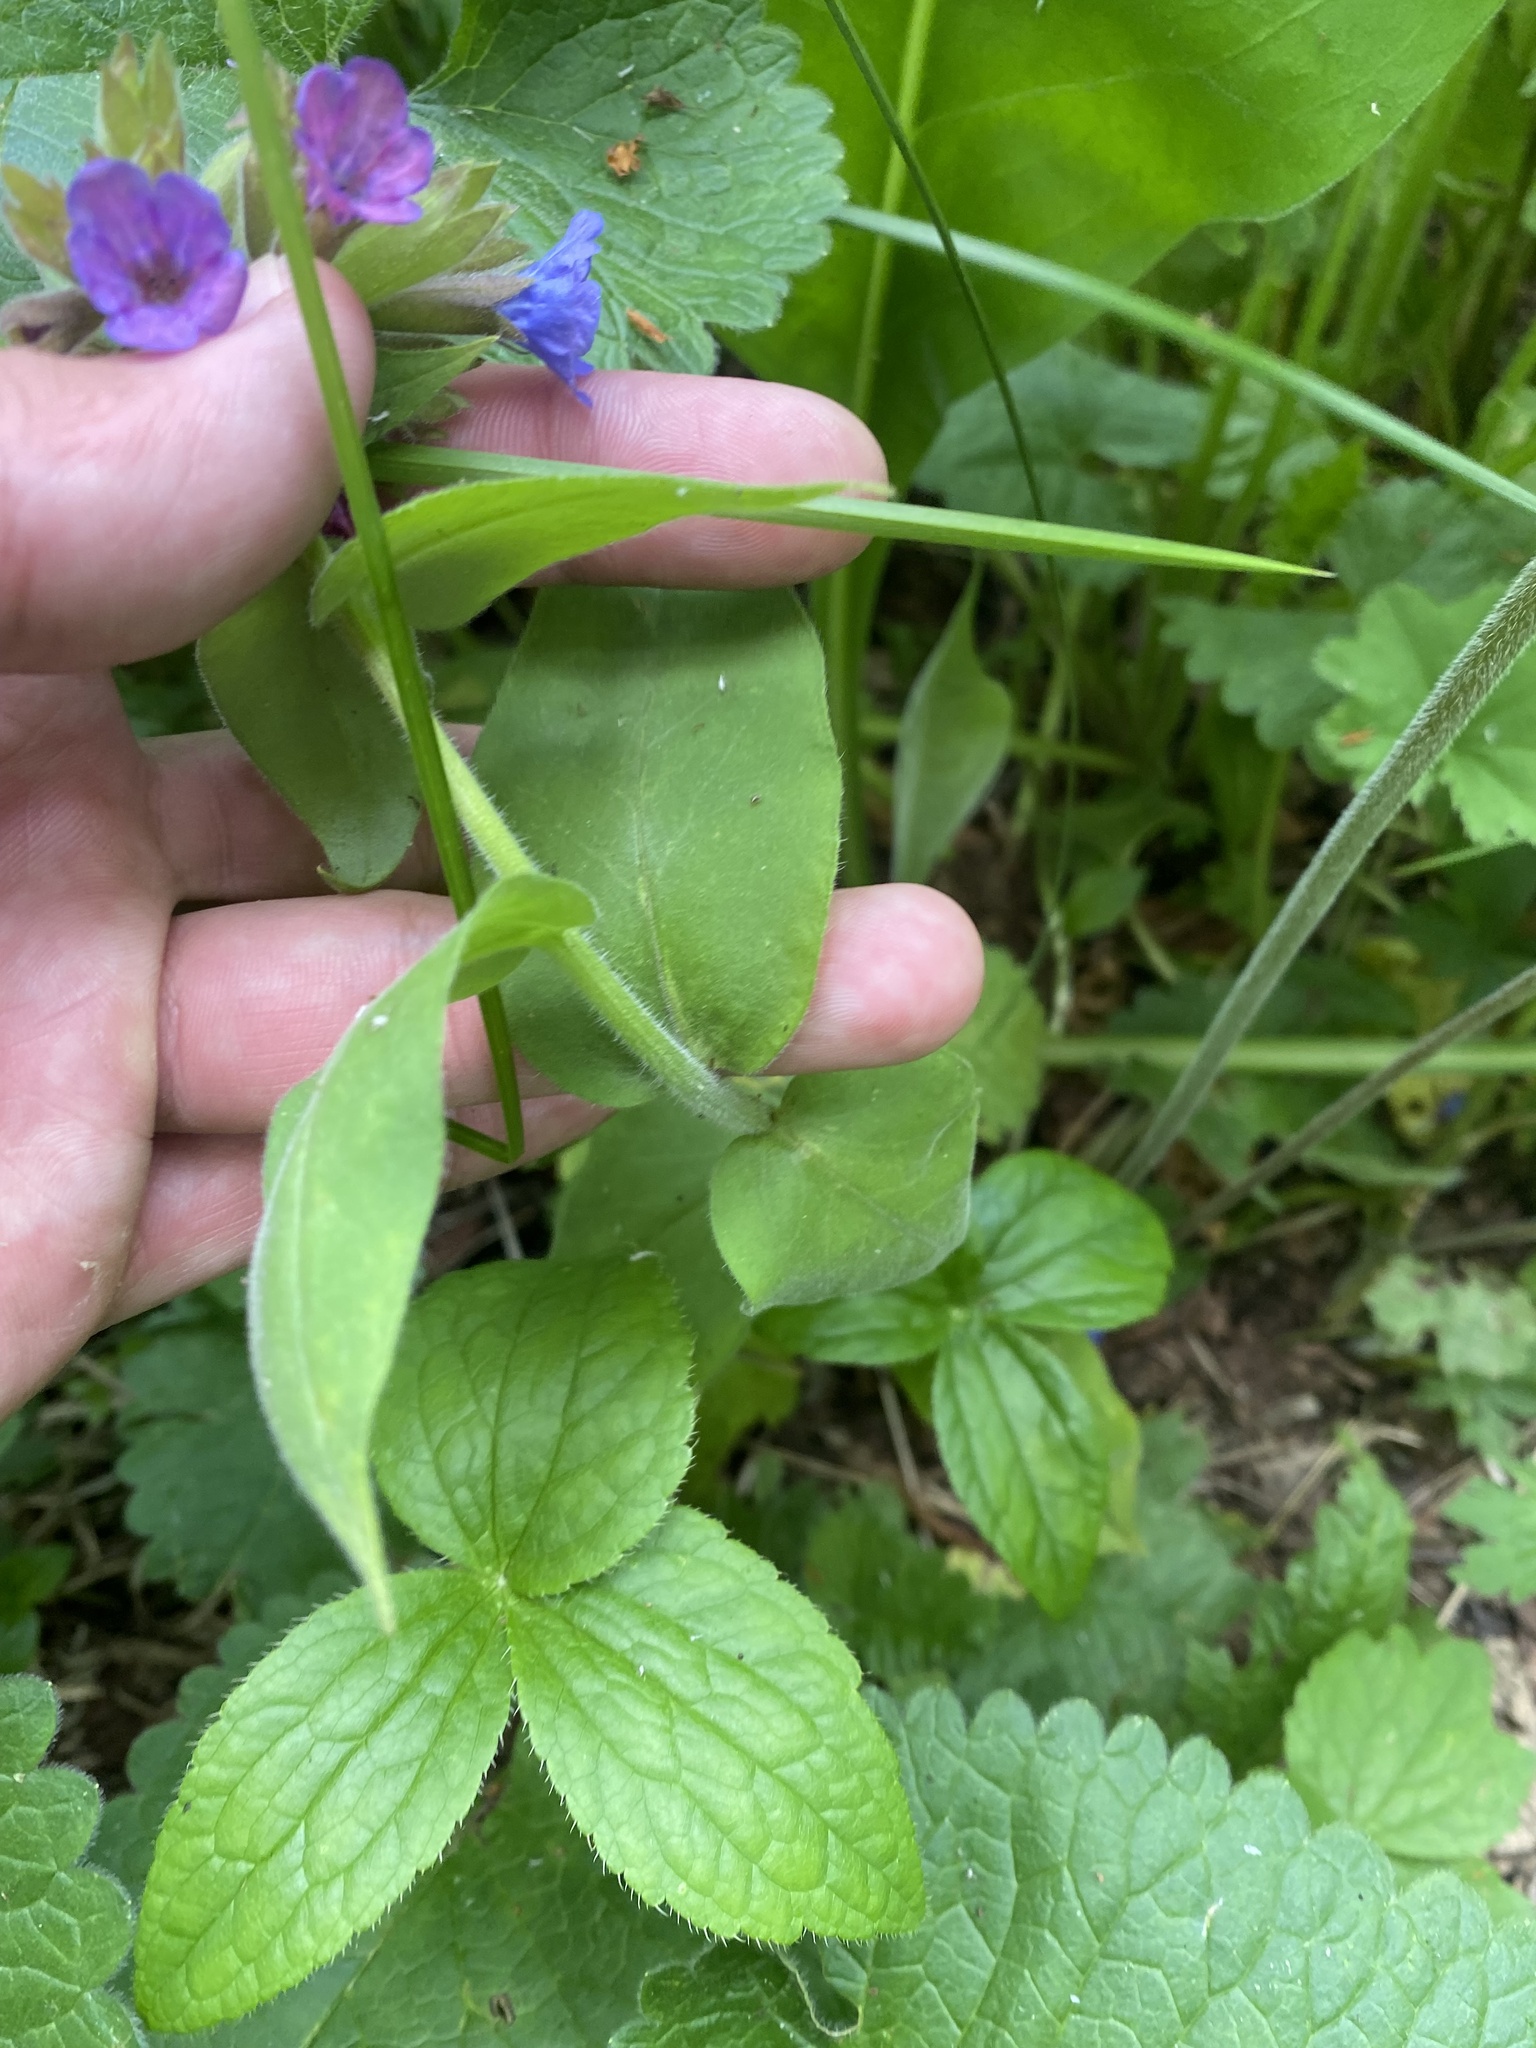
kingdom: Plantae
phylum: Tracheophyta
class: Magnoliopsida
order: Boraginales
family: Boraginaceae
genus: Pulmonaria
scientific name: Pulmonaria mollis
